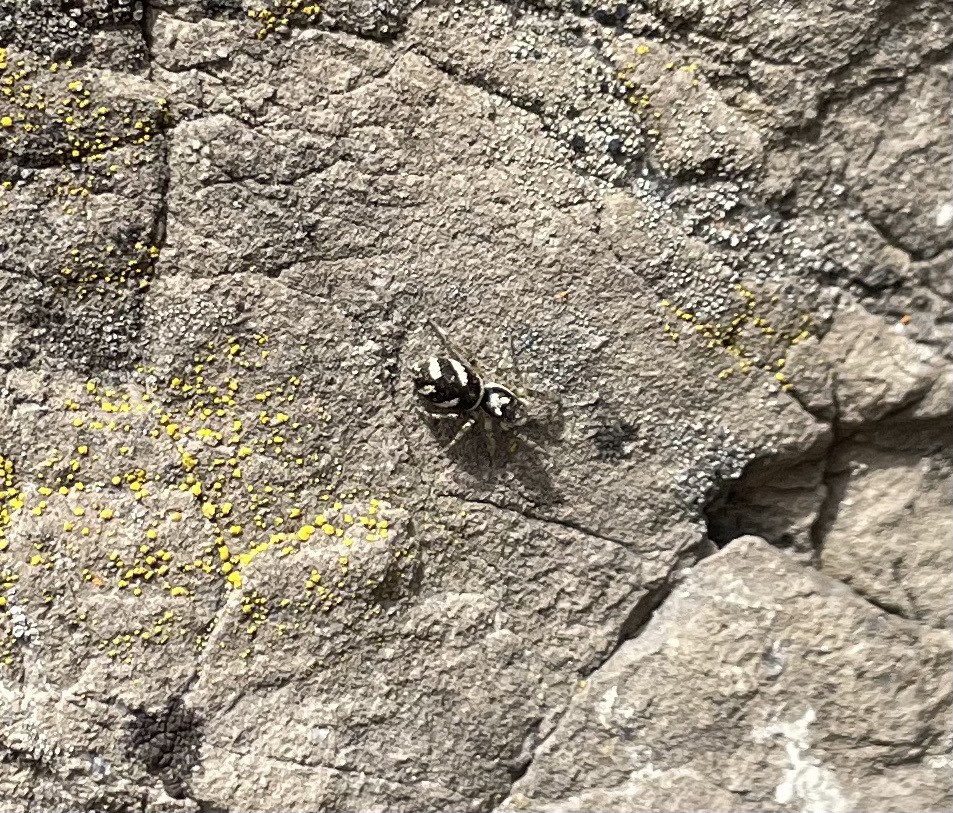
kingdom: Animalia
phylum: Arthropoda
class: Arachnida
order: Araneae
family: Salticidae
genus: Salticus
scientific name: Salticus scenicus
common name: Zebra jumper
